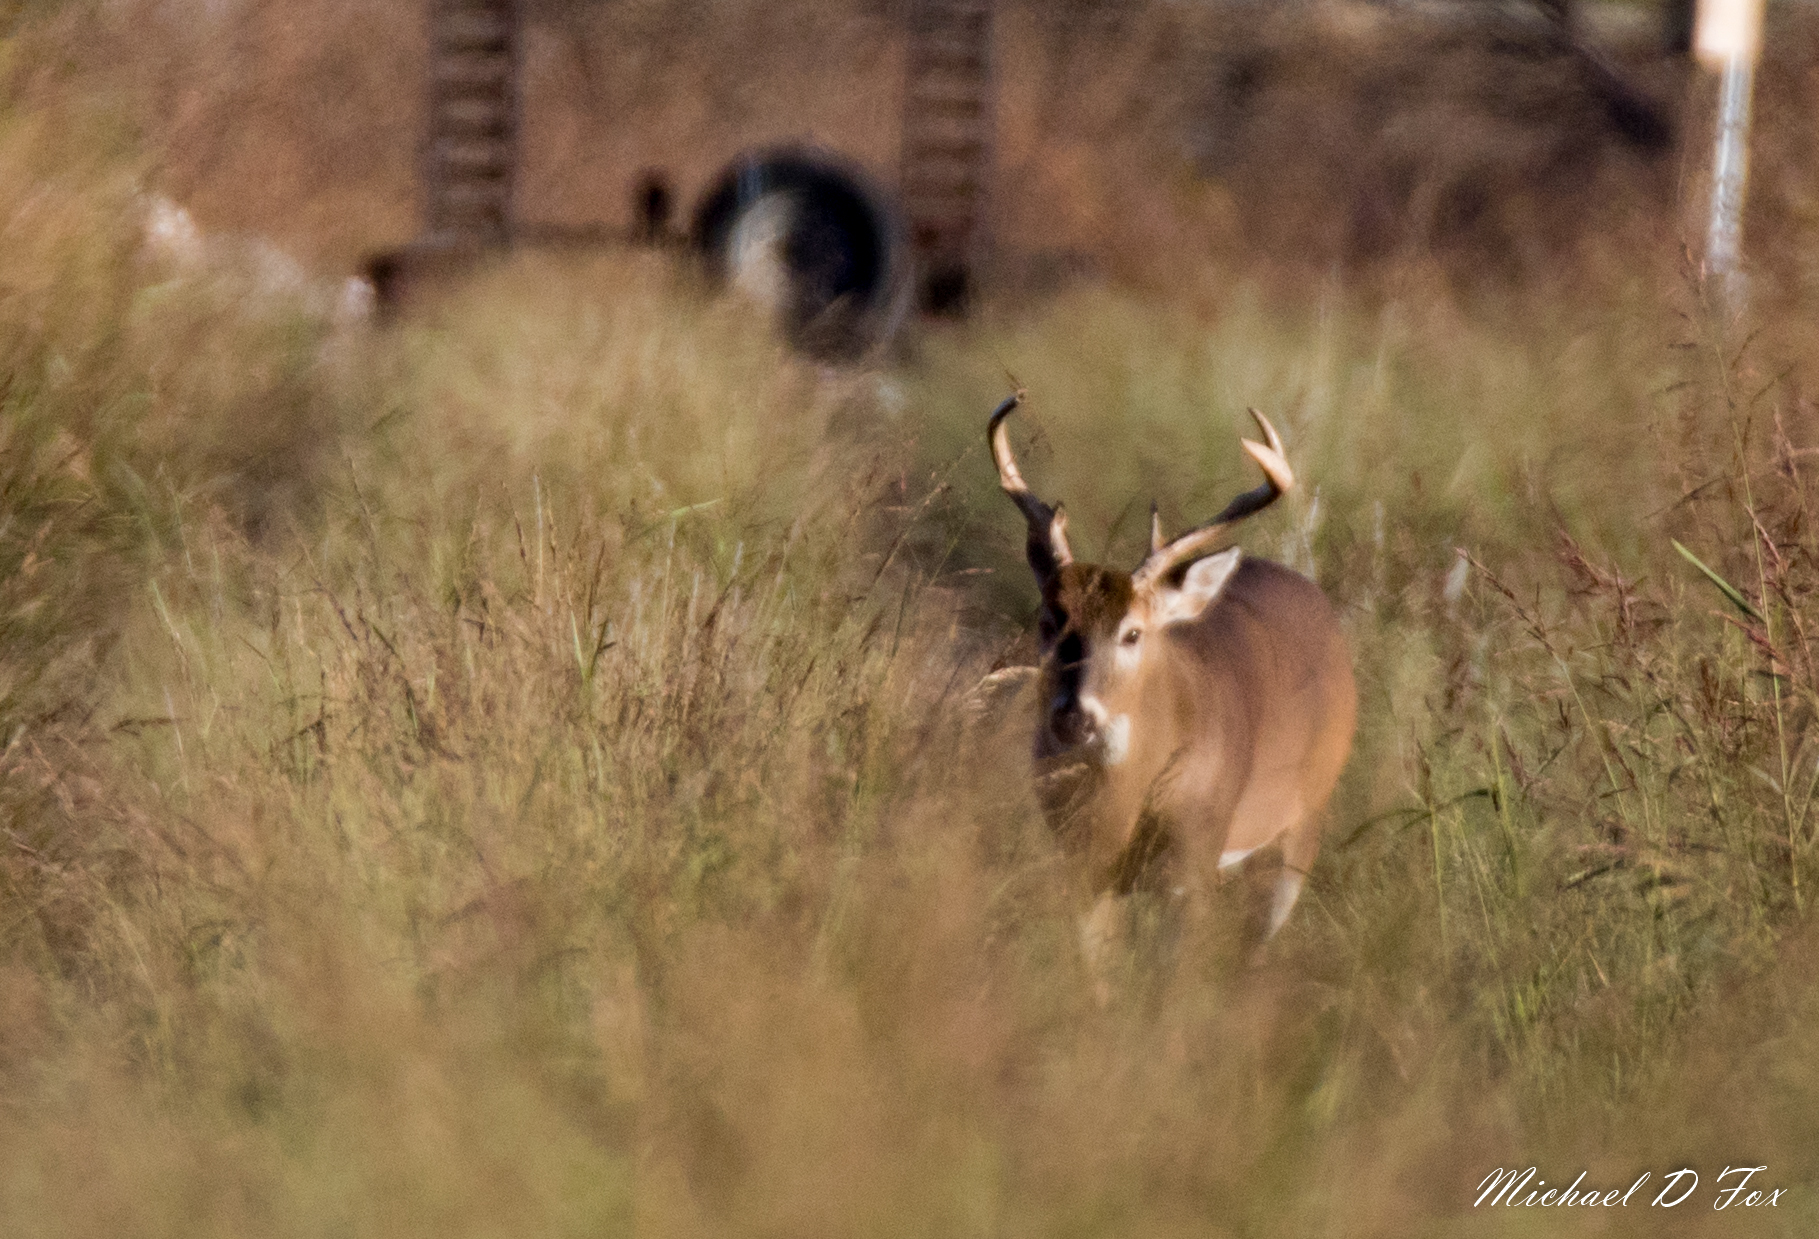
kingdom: Animalia
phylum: Chordata
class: Mammalia
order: Artiodactyla
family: Cervidae
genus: Odocoileus
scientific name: Odocoileus virginianus
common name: White-tailed deer
